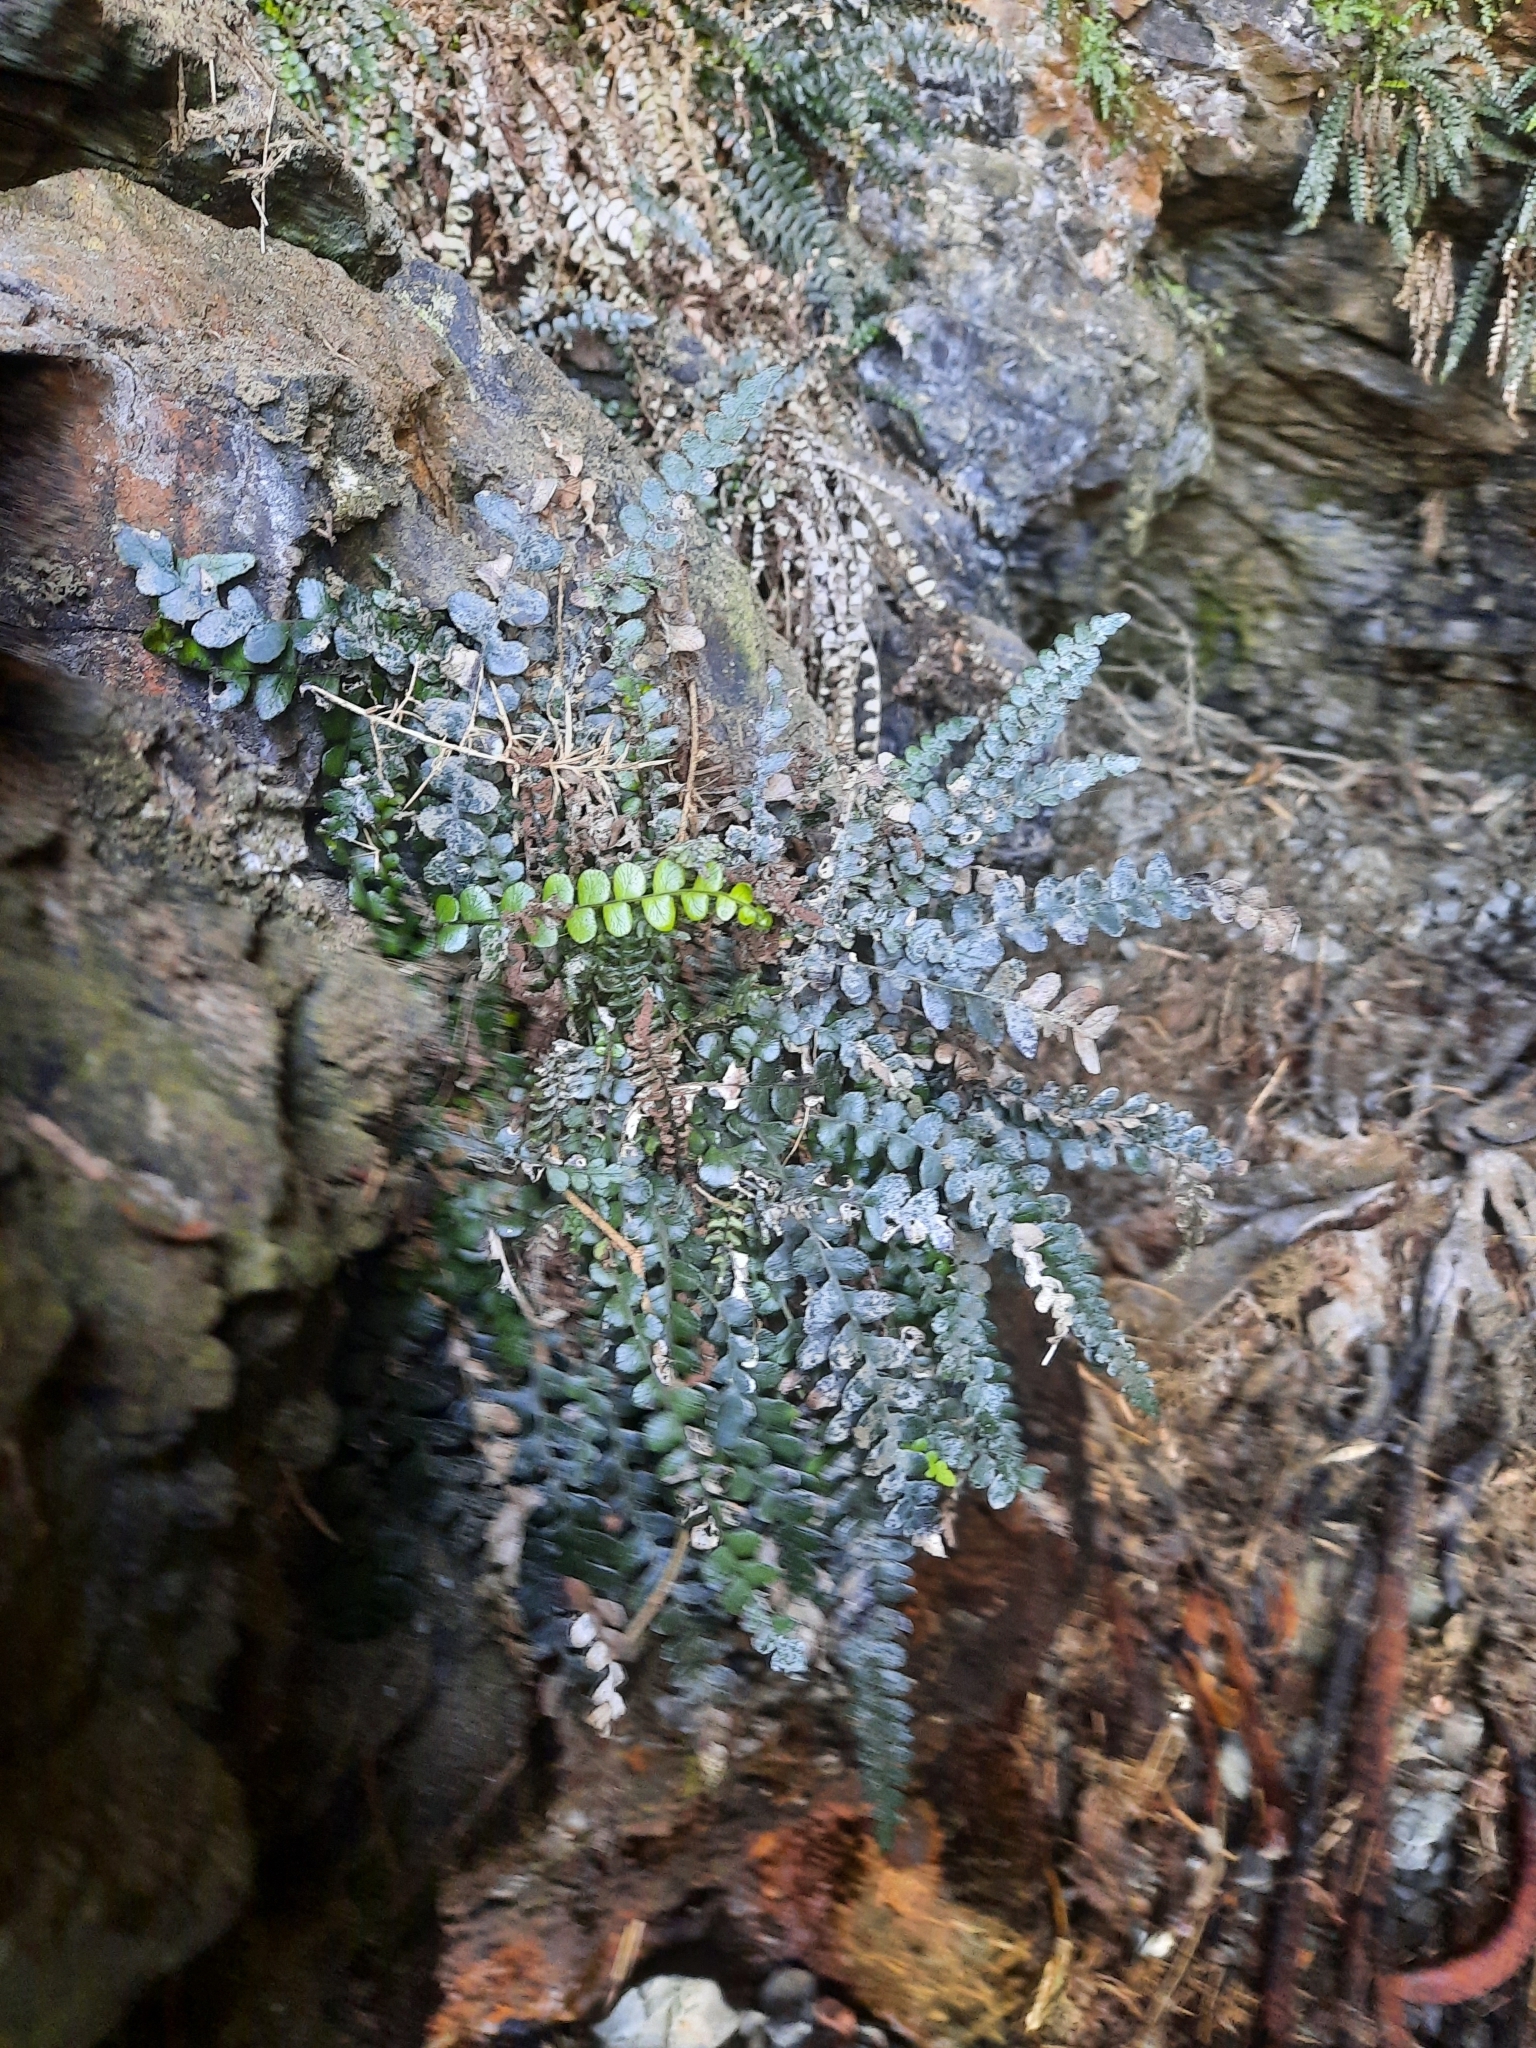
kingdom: Plantae
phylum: Tracheophyta
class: Polypodiopsida
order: Polypodiales
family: Blechnaceae
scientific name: Blechnaceae
